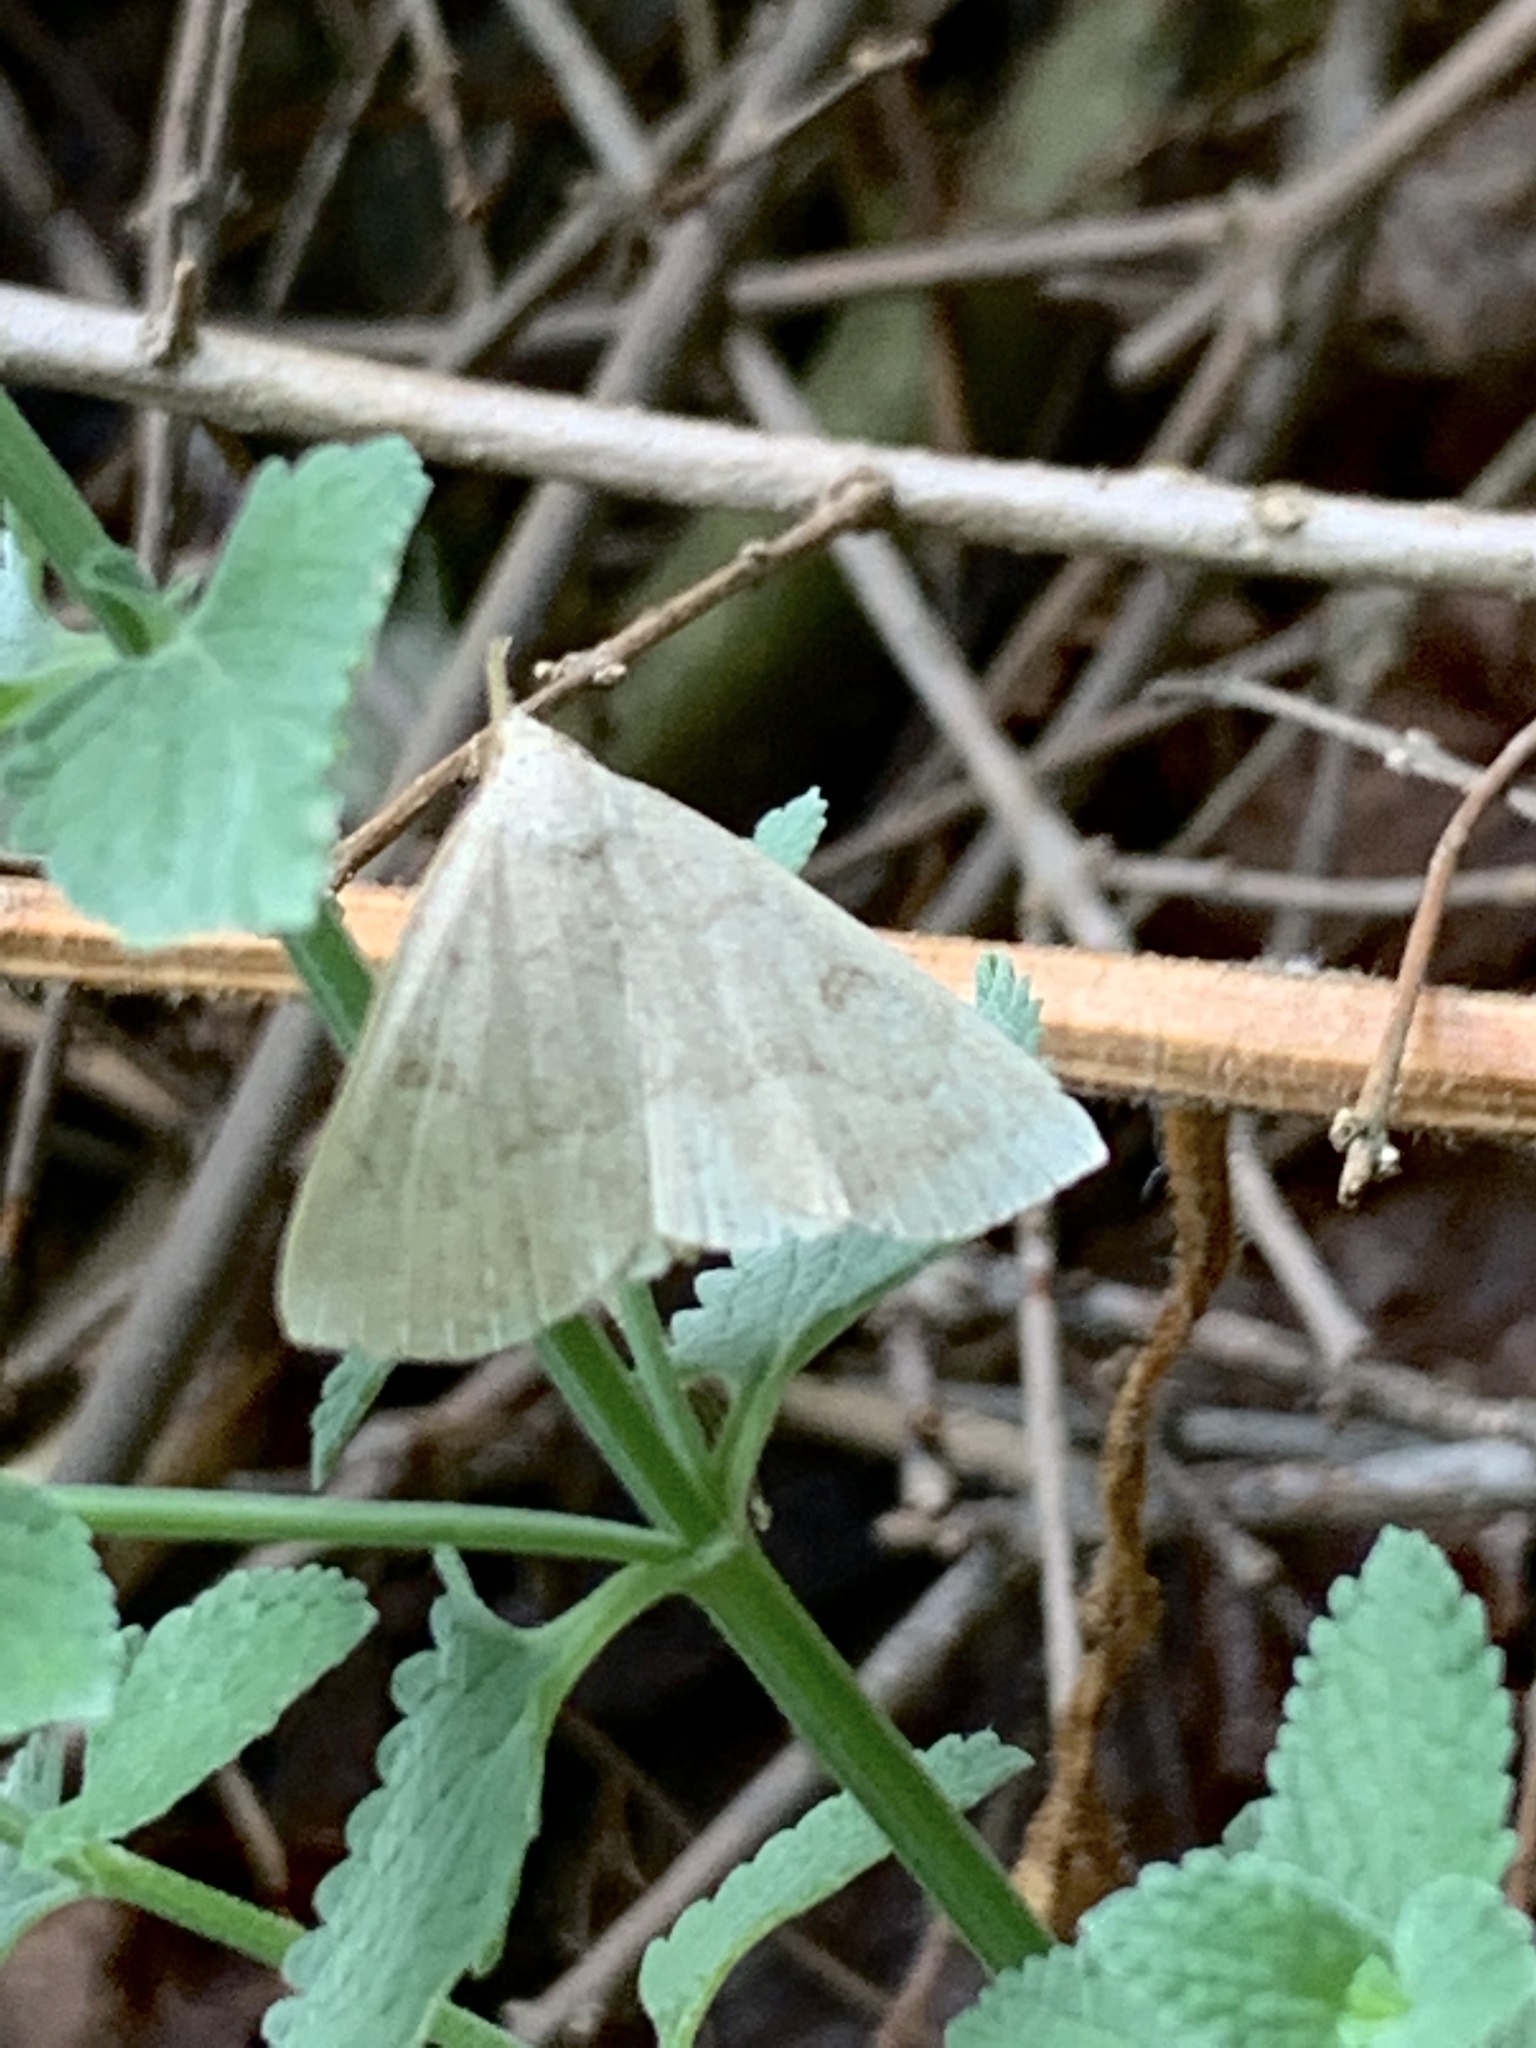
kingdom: Animalia
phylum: Arthropoda
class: Insecta
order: Lepidoptera
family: Erebidae
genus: Macrochilo
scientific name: Macrochilo morbidalis
